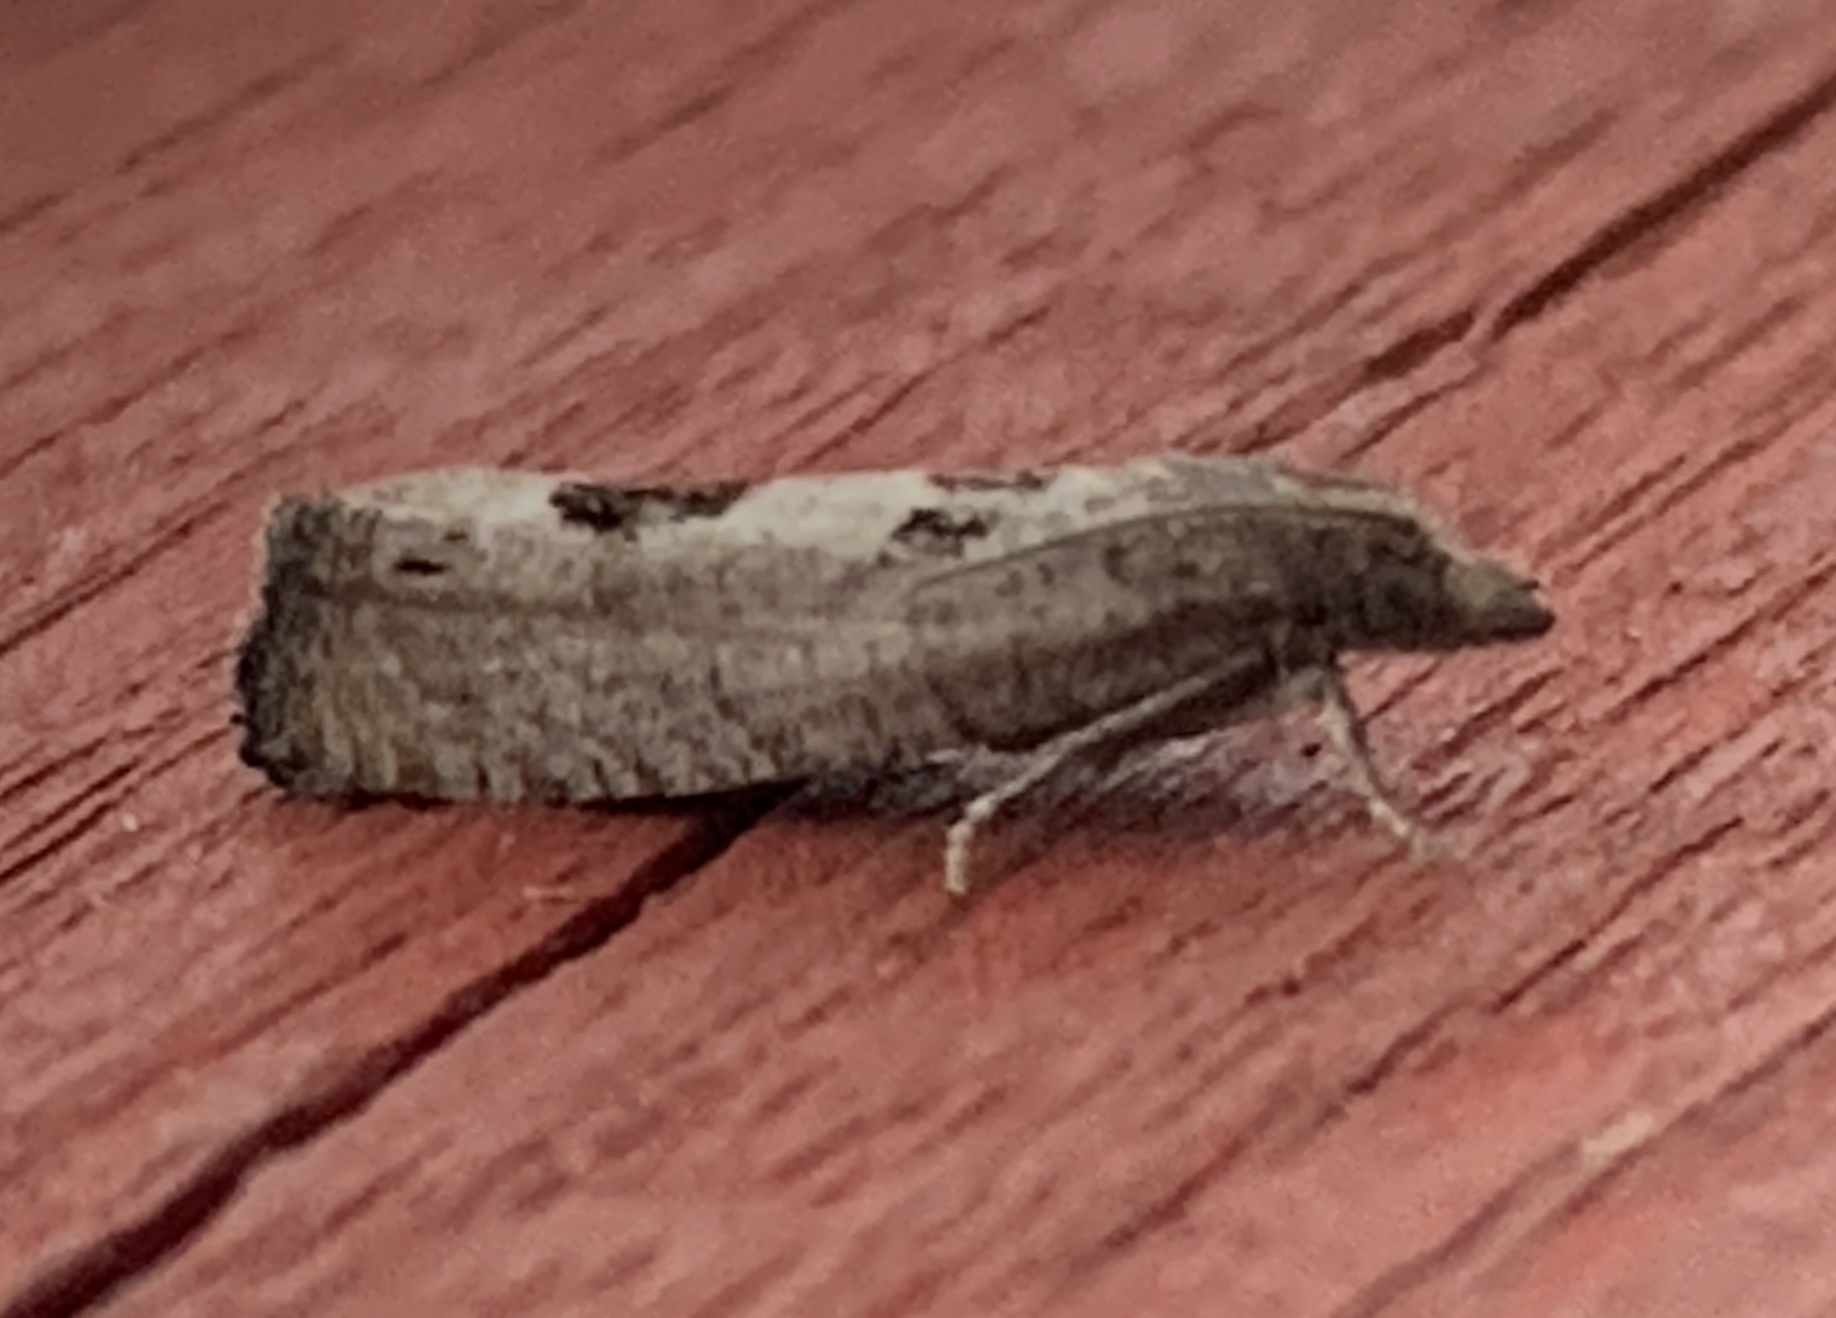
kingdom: Animalia
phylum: Arthropoda
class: Insecta
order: Lepidoptera
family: Tortricidae
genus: Eucosma
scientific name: Eucosma tomonana
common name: Aster-head eucosma moth
